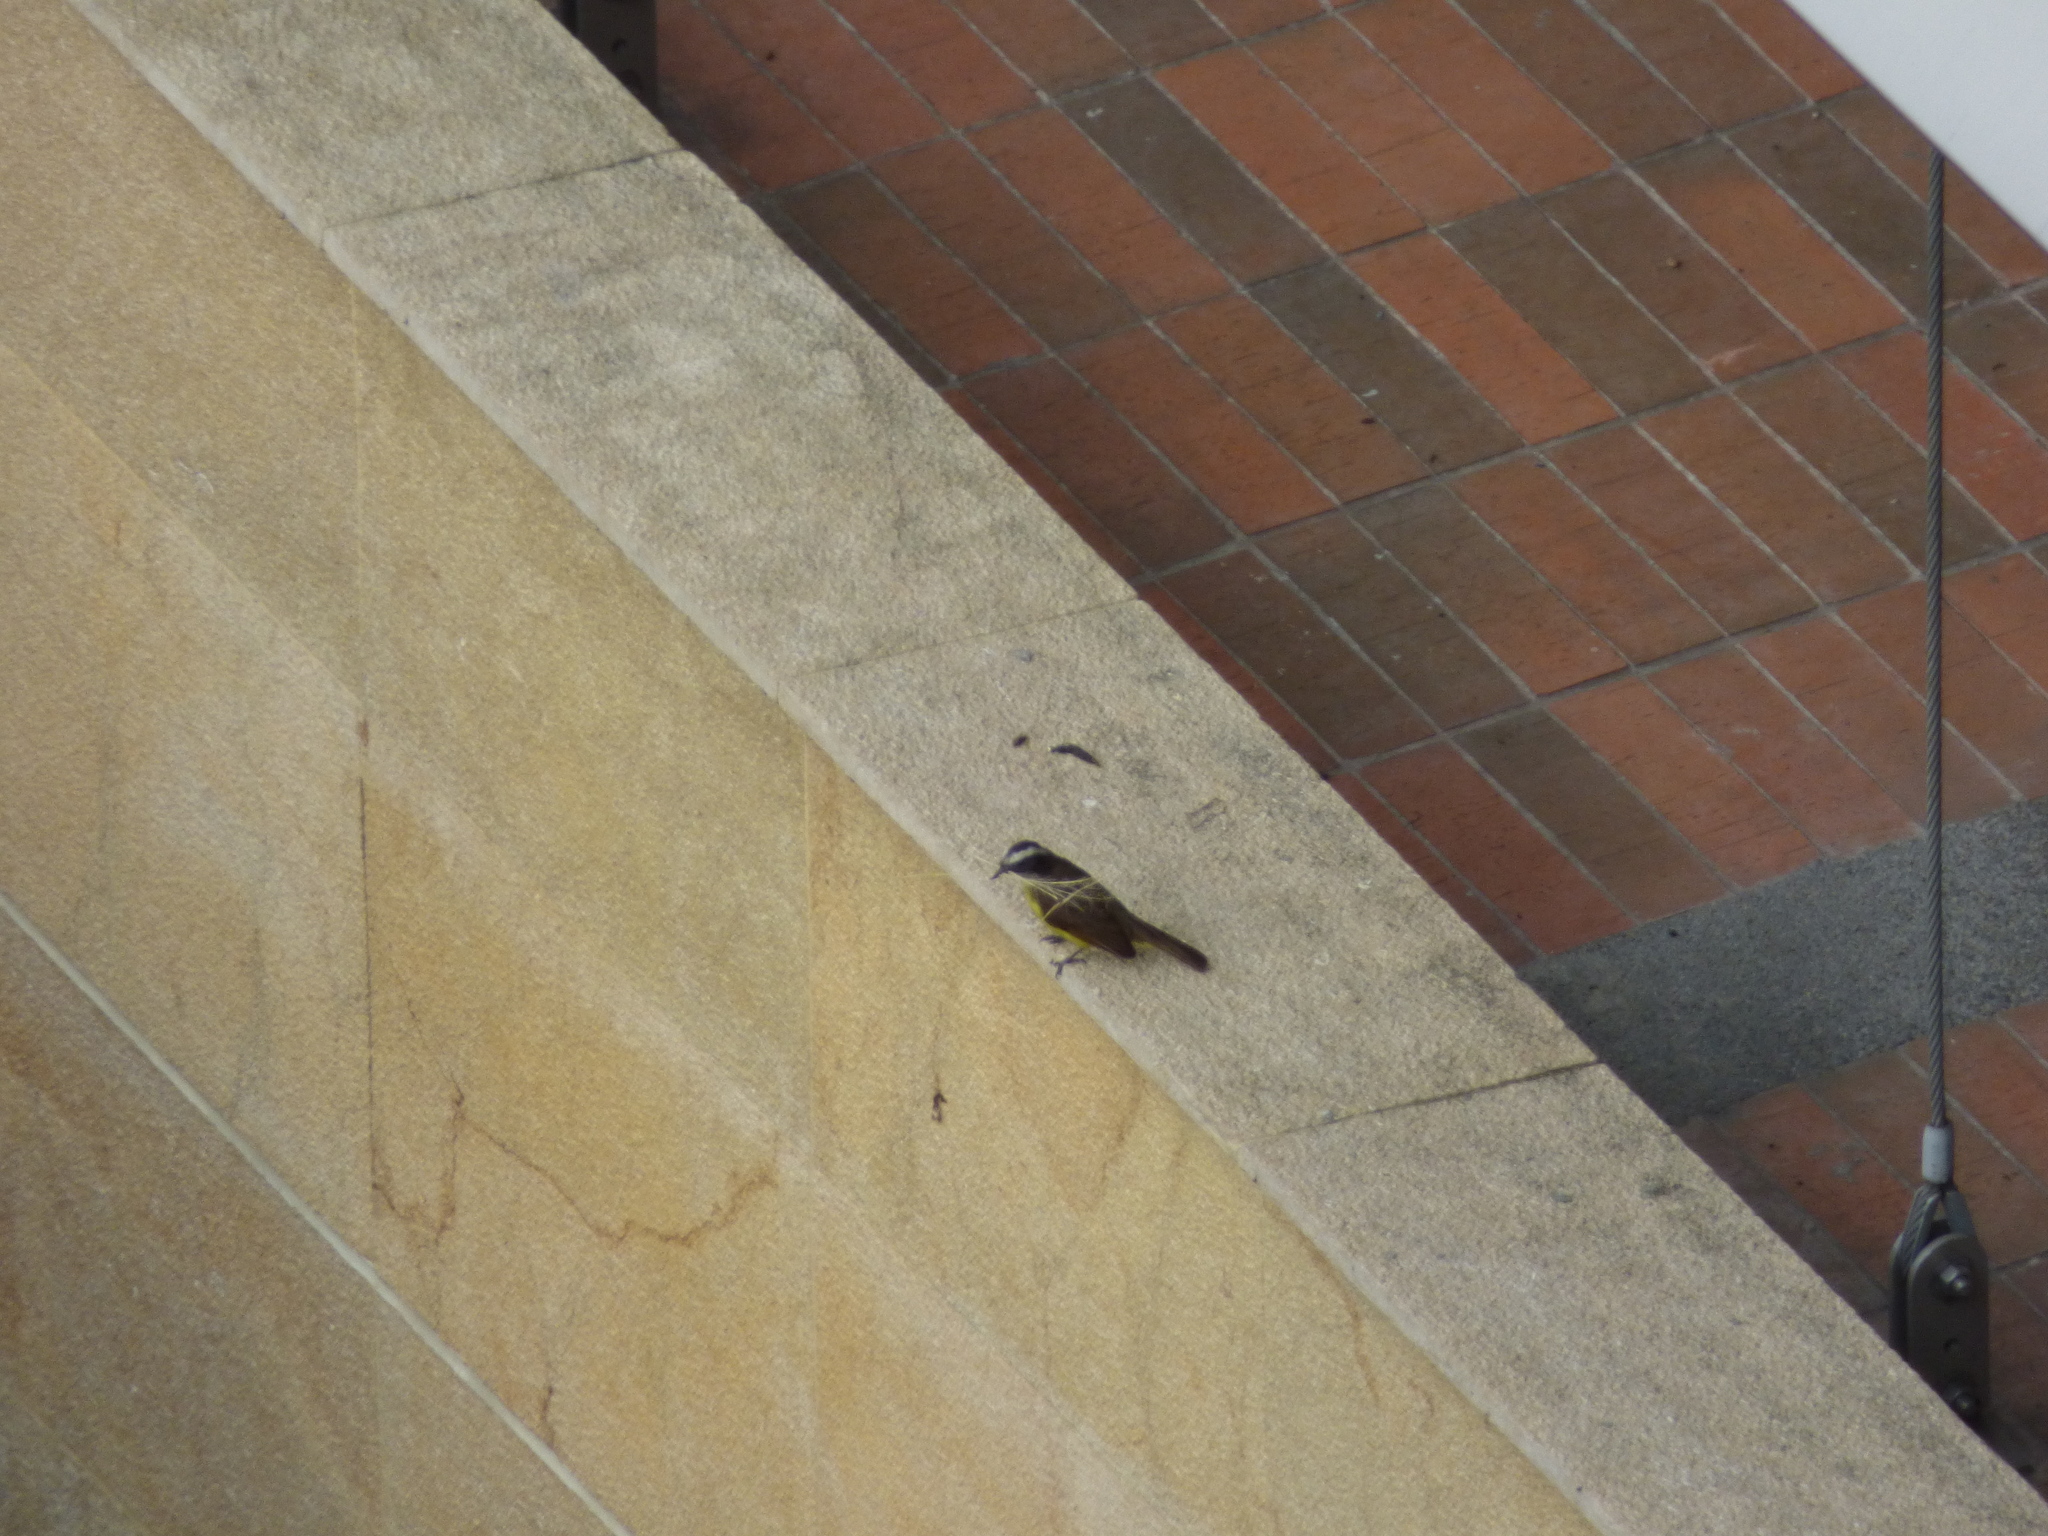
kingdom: Animalia
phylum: Chordata
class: Aves
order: Passeriformes
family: Tyrannidae
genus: Myiozetetes
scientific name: Myiozetetes cayanensis
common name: Rusty-margined flycatcher
